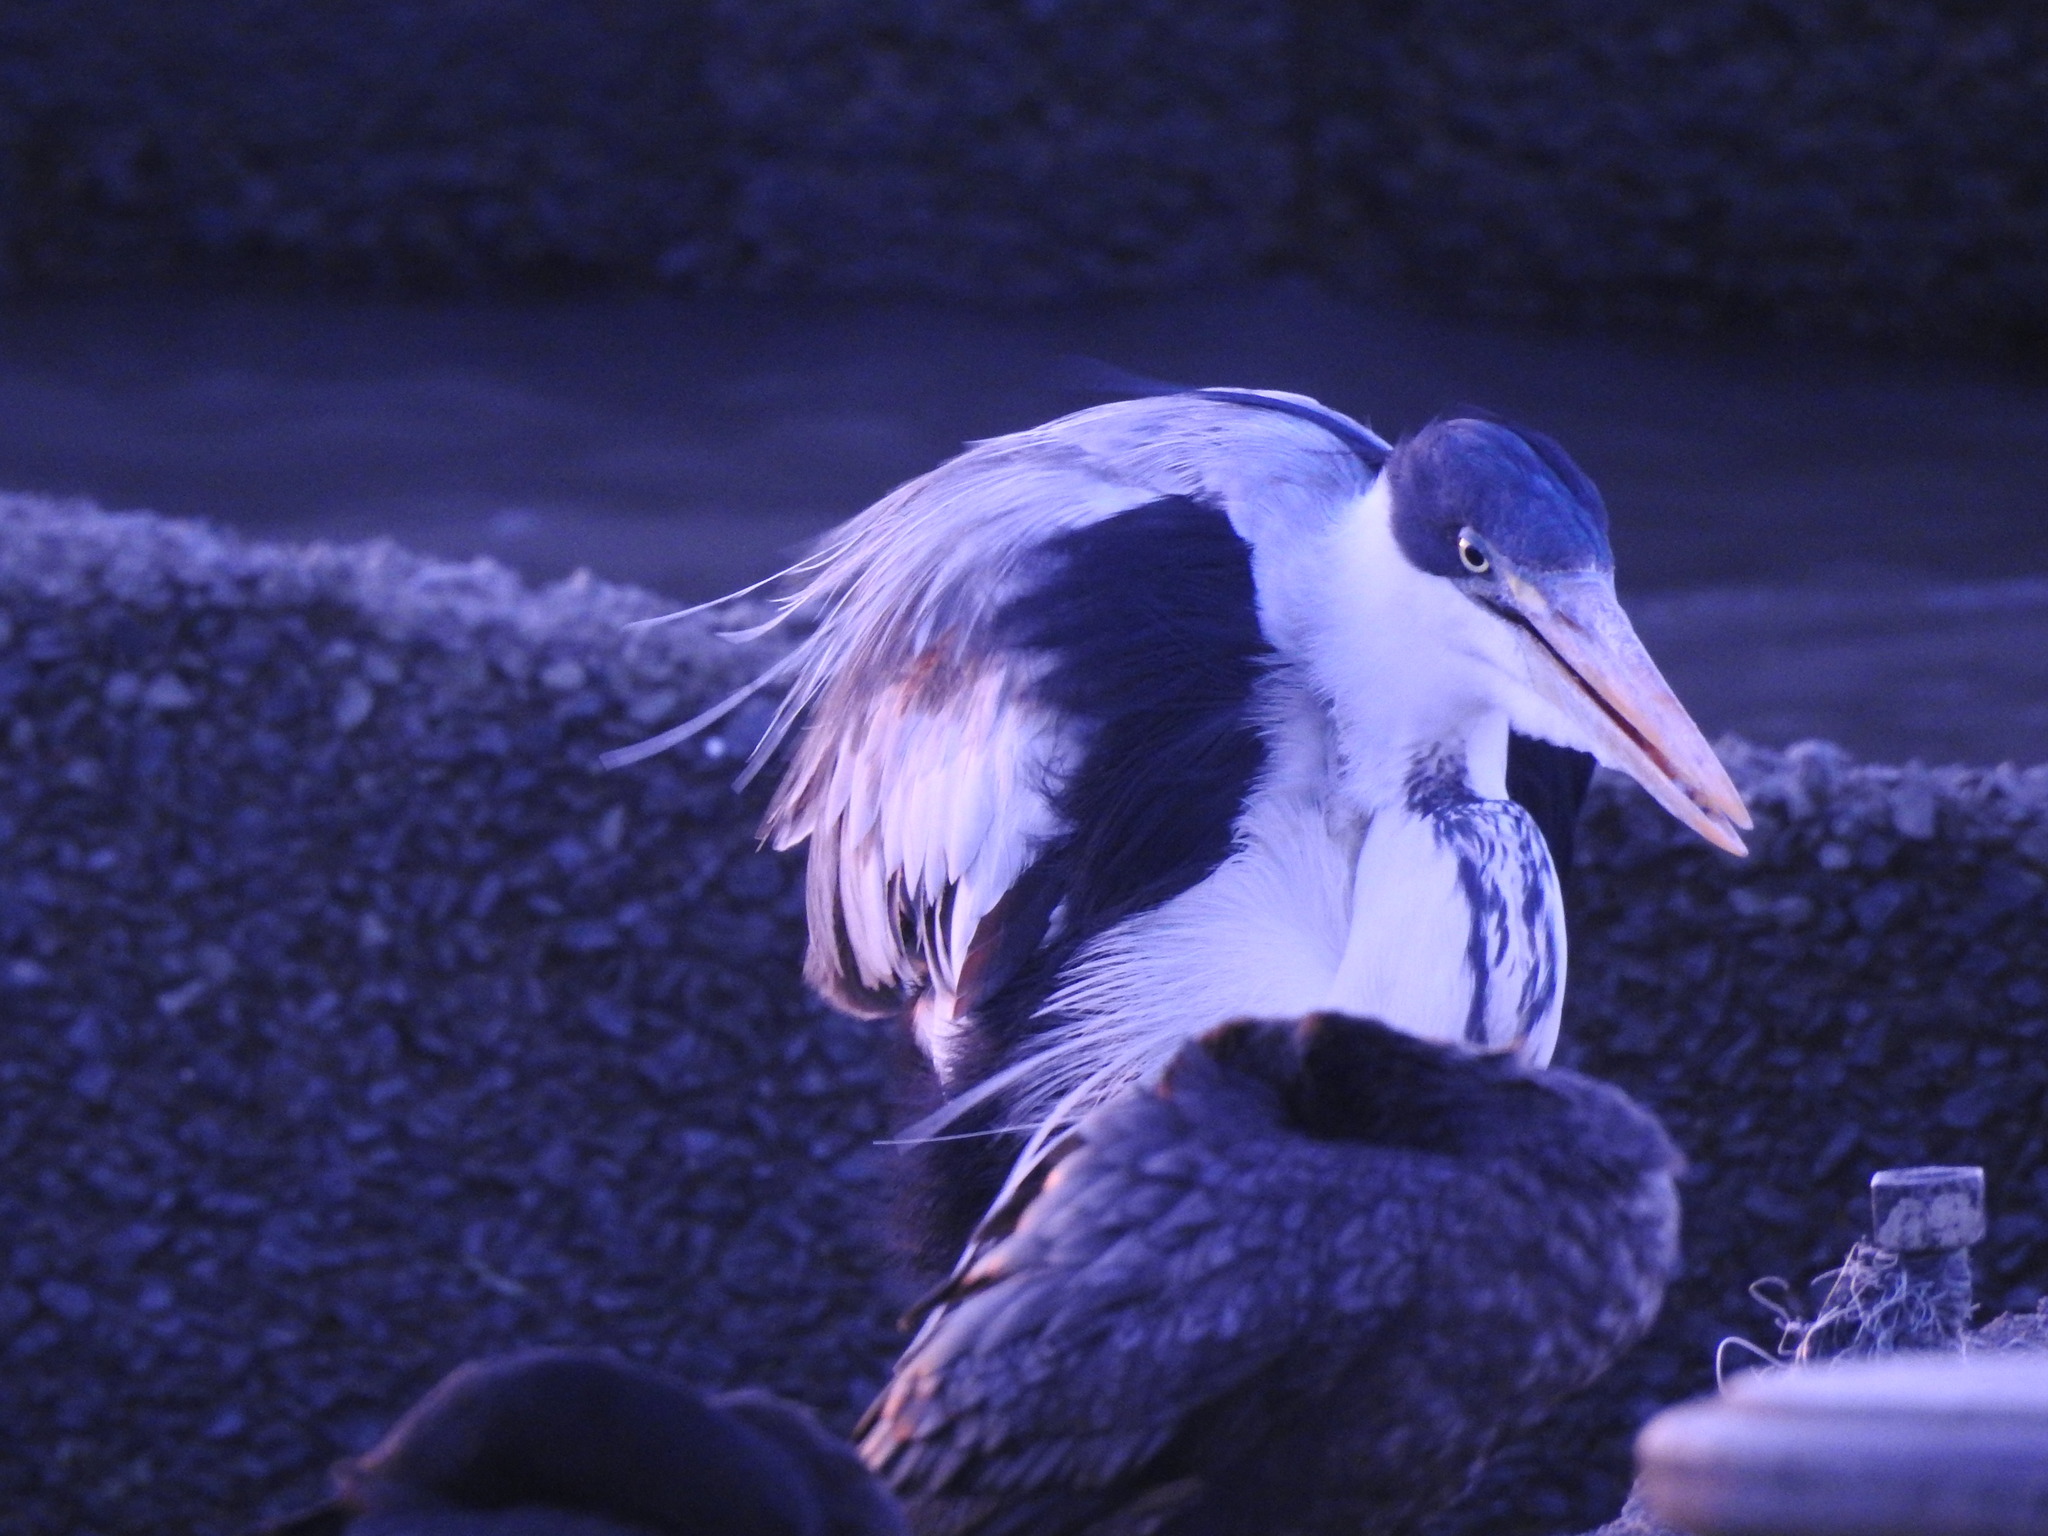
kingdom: Animalia
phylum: Chordata
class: Aves
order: Pelecaniformes
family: Ardeidae
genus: Ardea
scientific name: Ardea cocoi
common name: Cocoi heron
